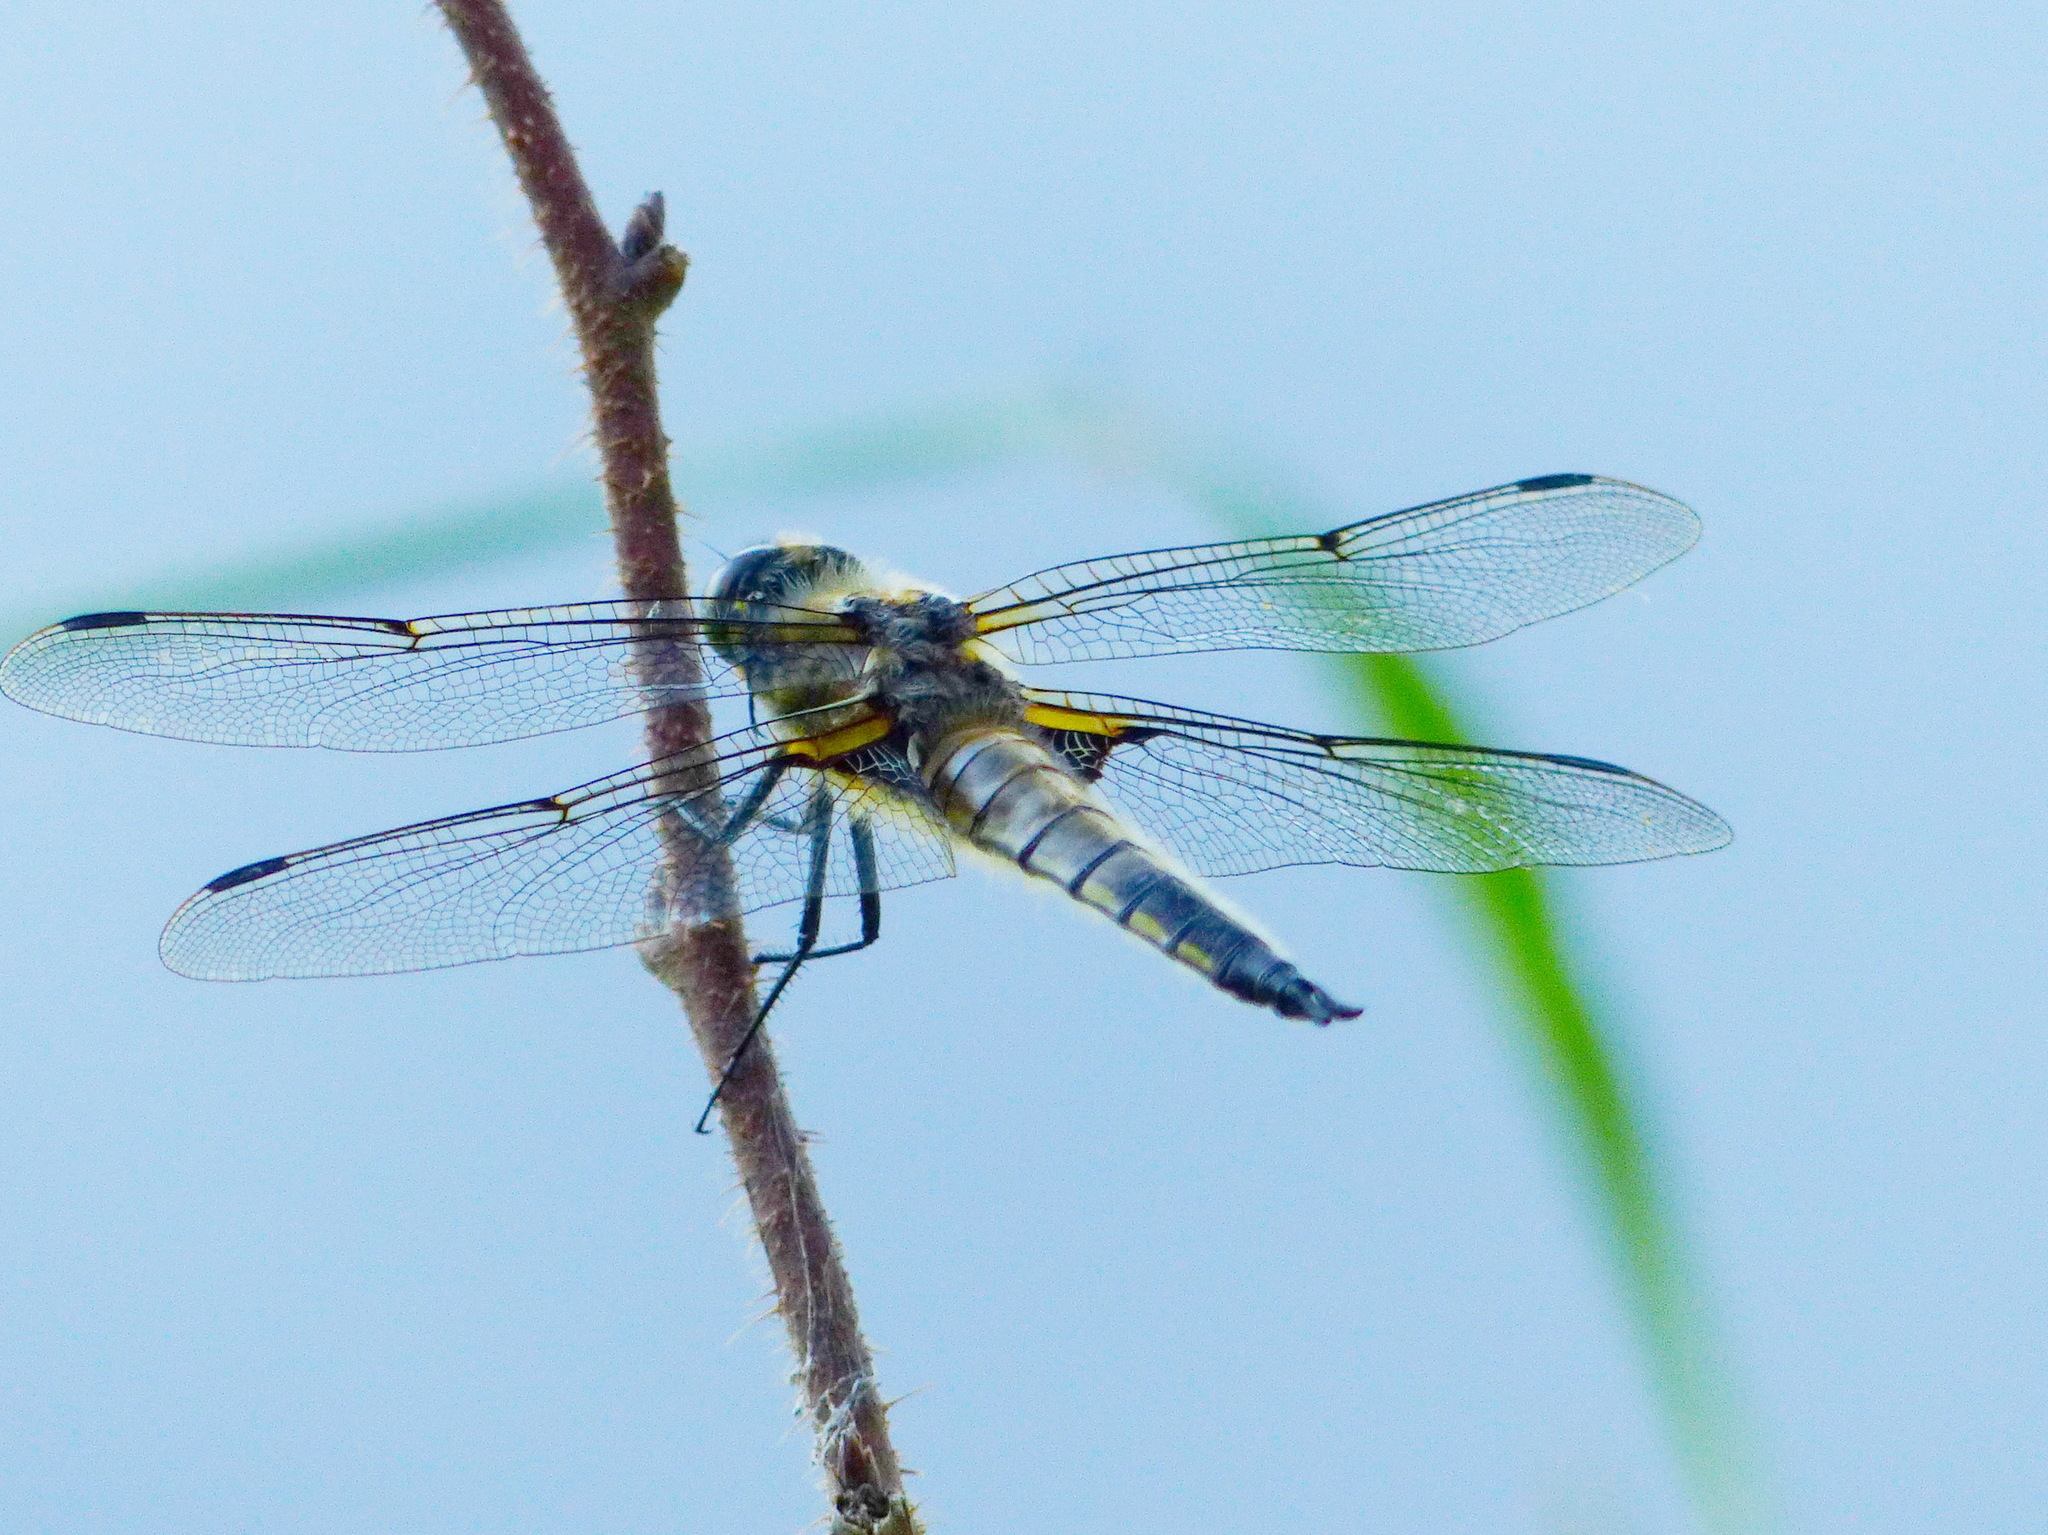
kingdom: Animalia
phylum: Arthropoda
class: Insecta
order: Odonata
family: Libellulidae
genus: Libellula
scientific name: Libellula quadrimaculata
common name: Four-spotted chaser
